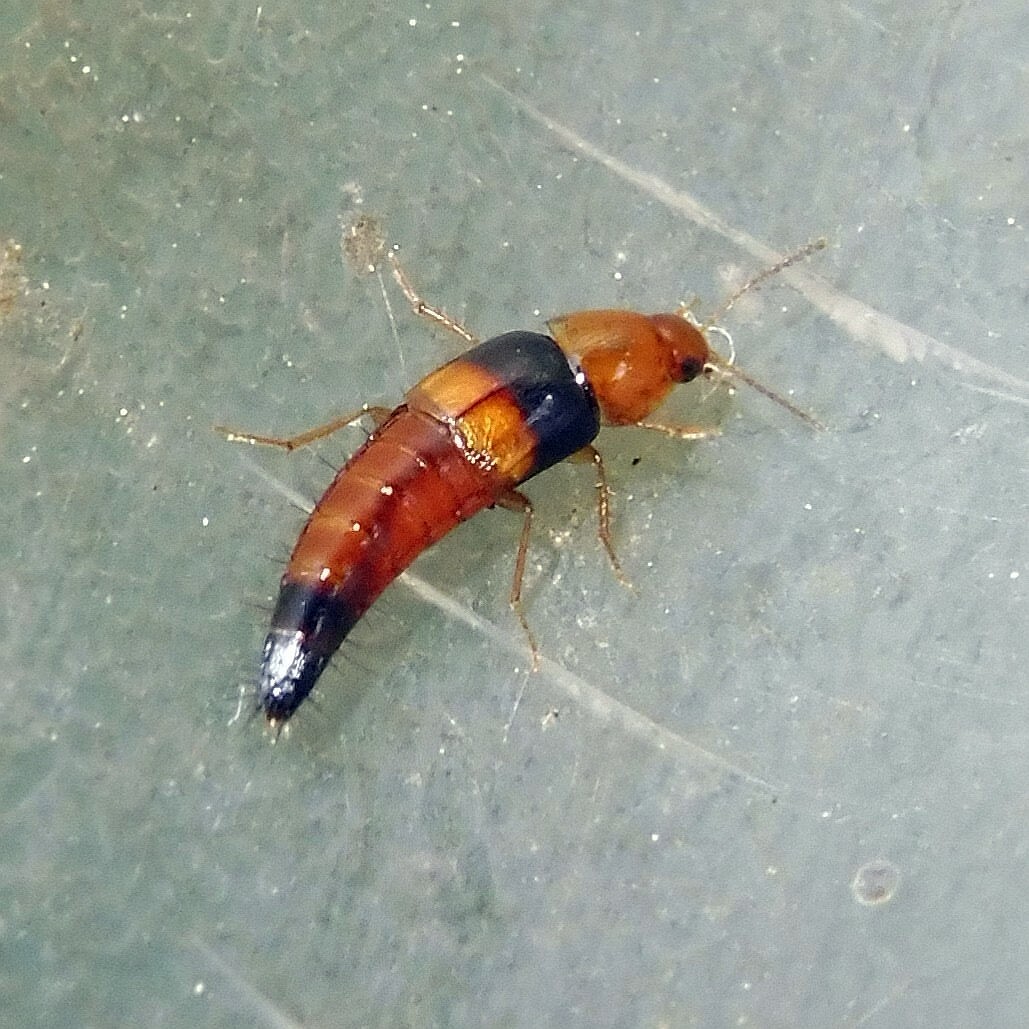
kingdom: Animalia
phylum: Arthropoda
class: Insecta
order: Coleoptera
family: Staphylinidae
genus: Tachyporus
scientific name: Tachyporus obtusus
